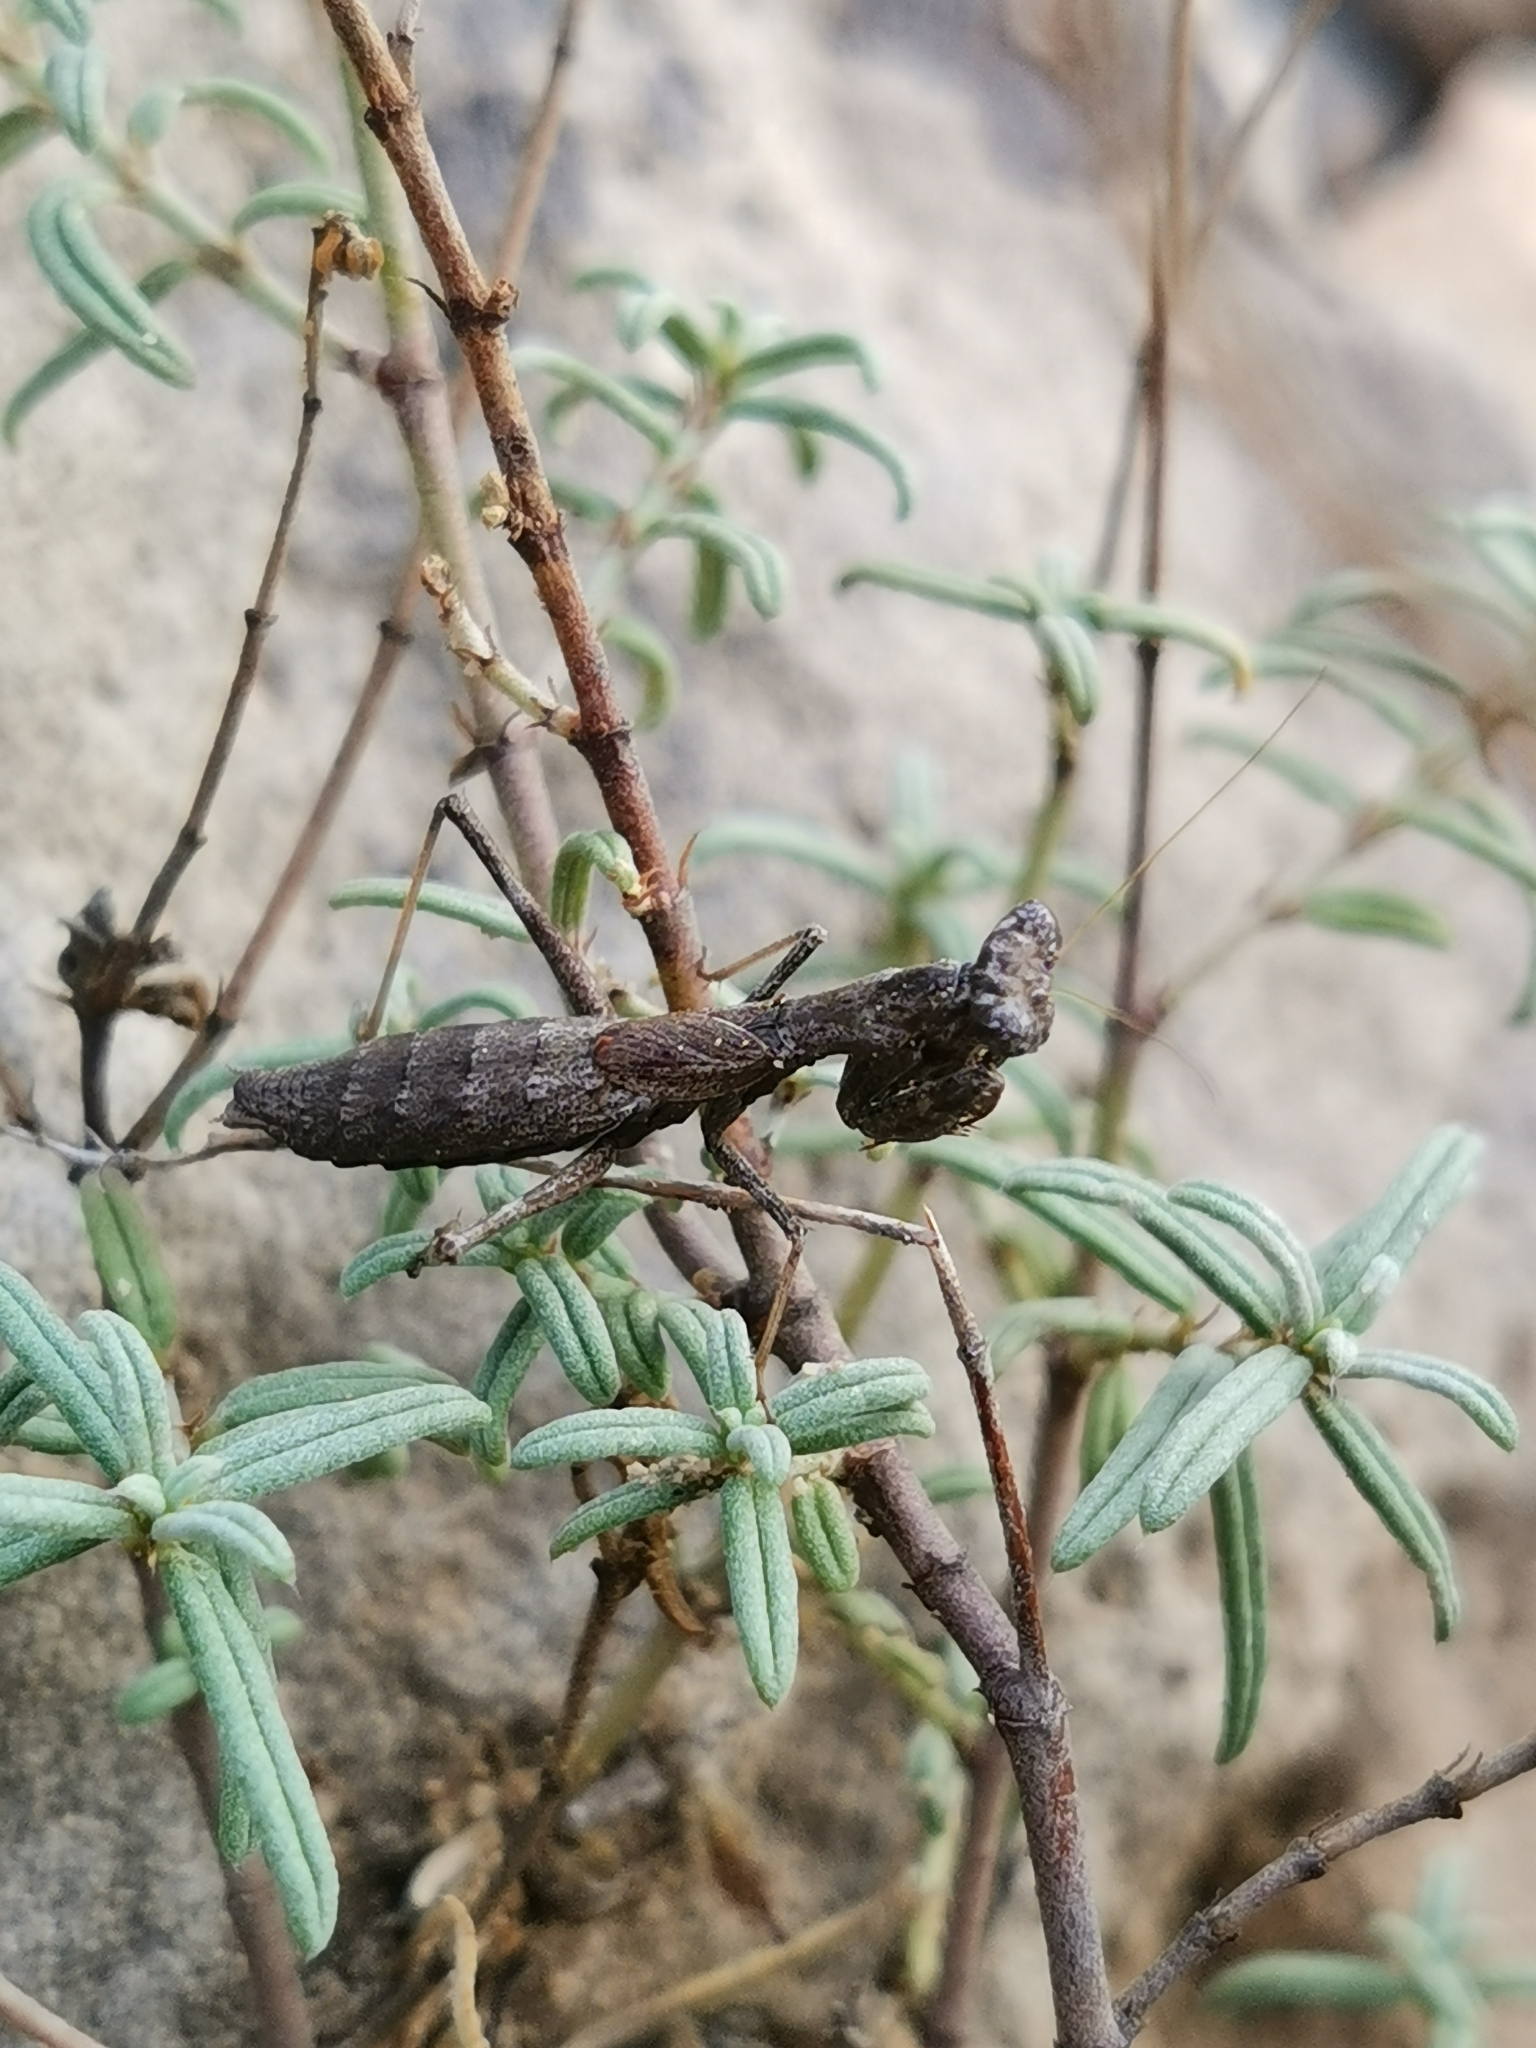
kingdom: Animalia
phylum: Arthropoda
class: Insecta
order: Mantodea
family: Amelidae
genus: Ameles
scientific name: Ameles decolor
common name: Dwarf mantis
